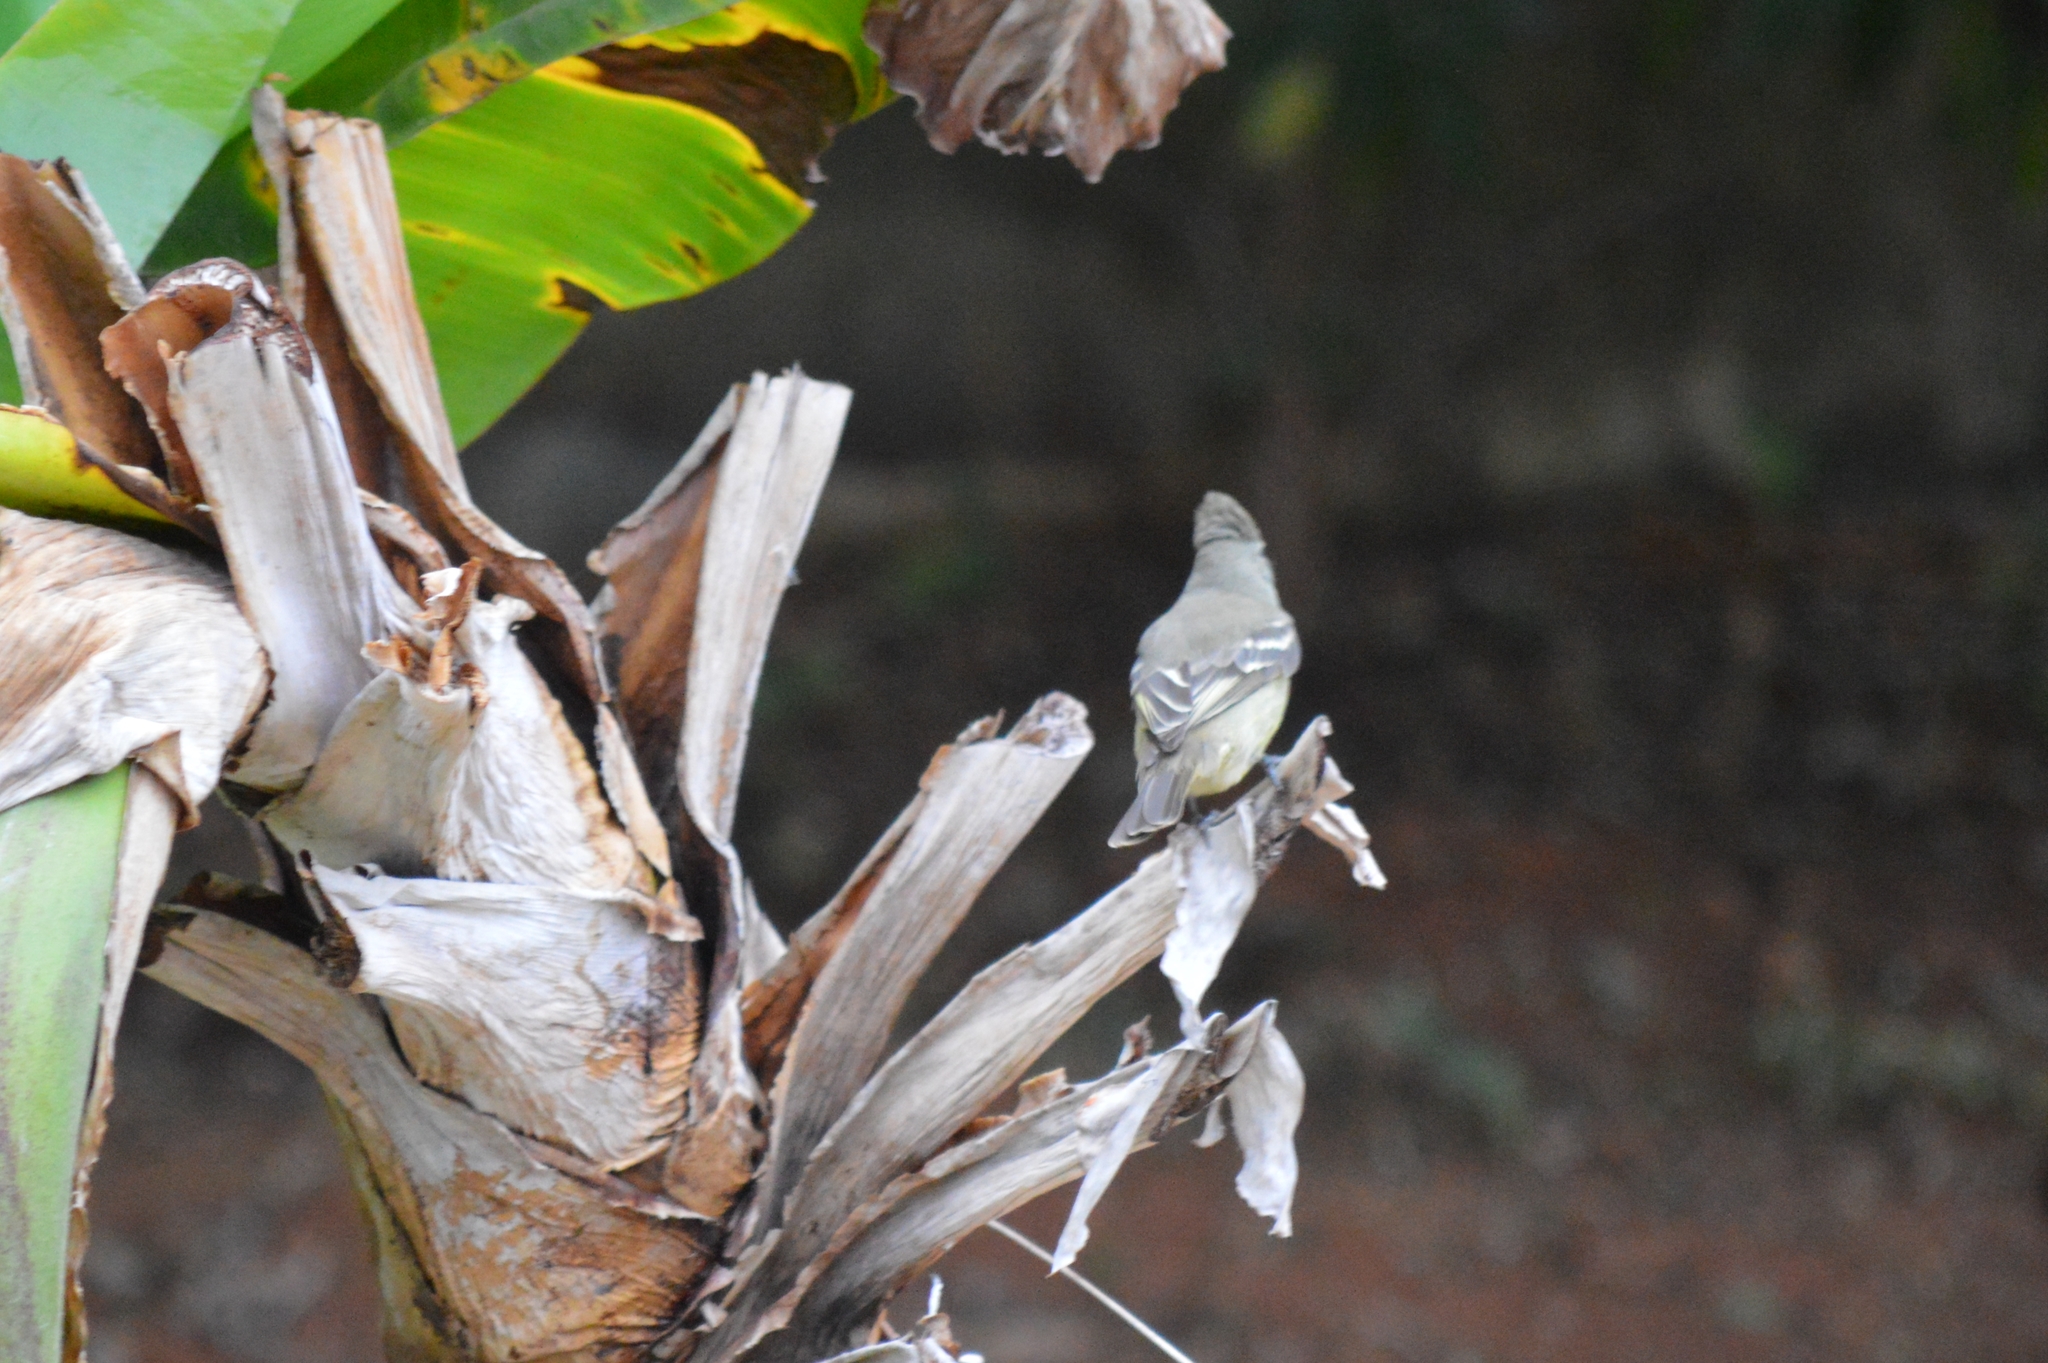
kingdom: Animalia
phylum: Chordata
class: Aves
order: Passeriformes
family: Tyrannidae
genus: Camptostoma
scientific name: Camptostoma obsoletum
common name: Southern beardless-tyrannulet
